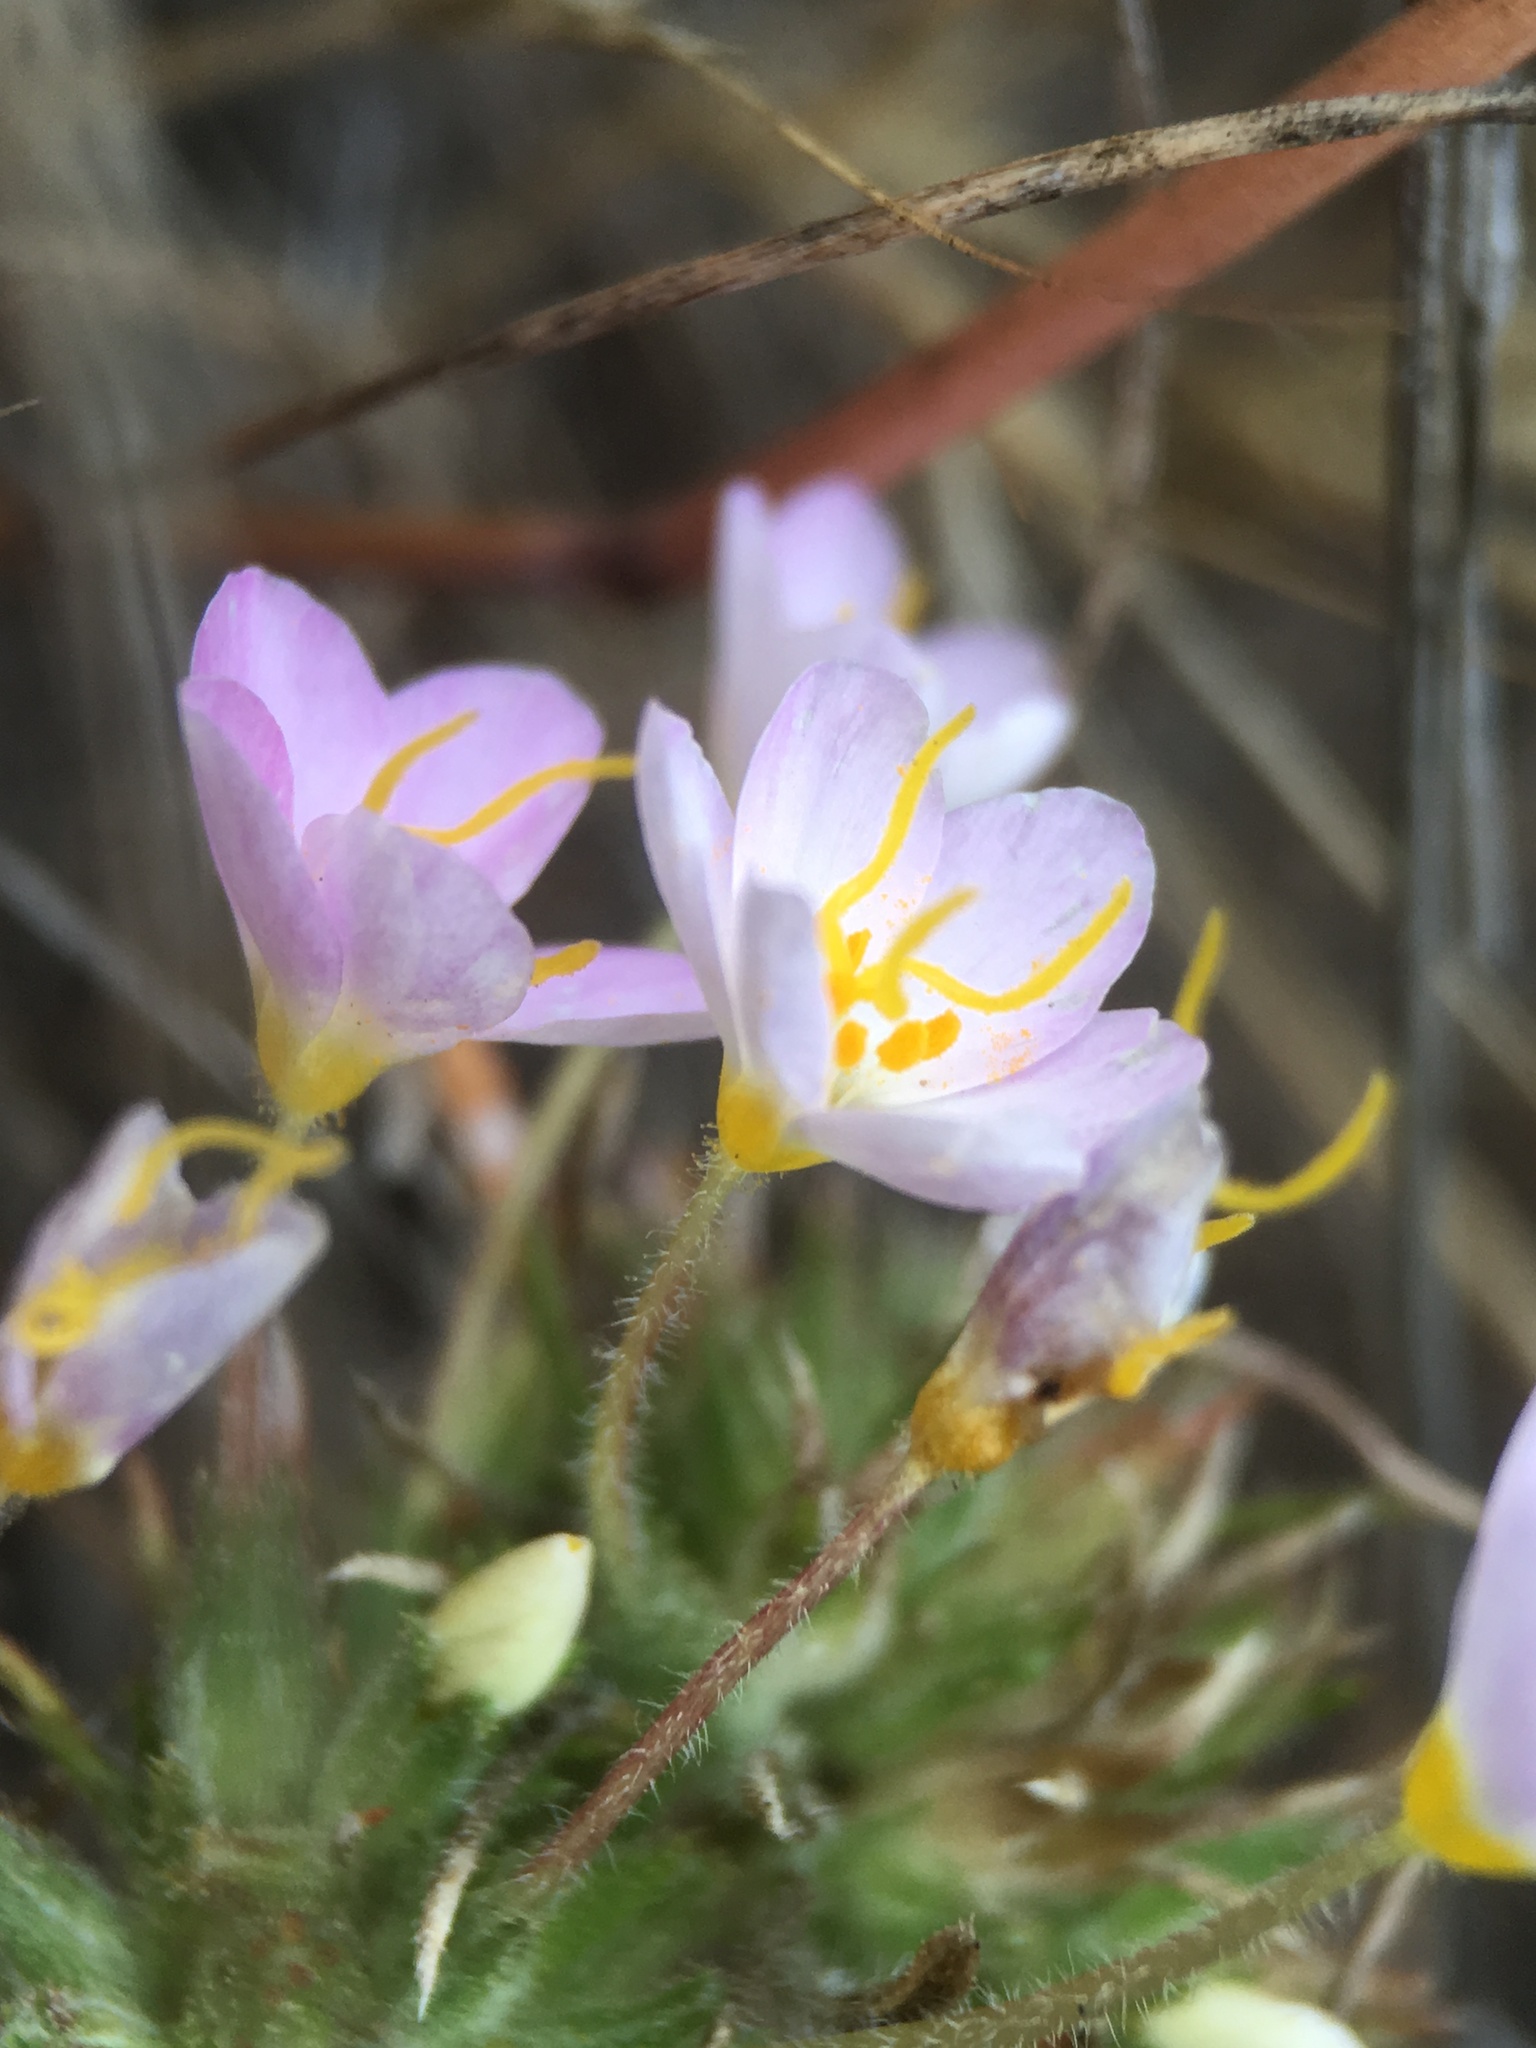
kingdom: Plantae
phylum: Tracheophyta
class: Magnoliopsida
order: Ericales
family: Polemoniaceae
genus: Leptosiphon
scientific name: Leptosiphon parviflorus
